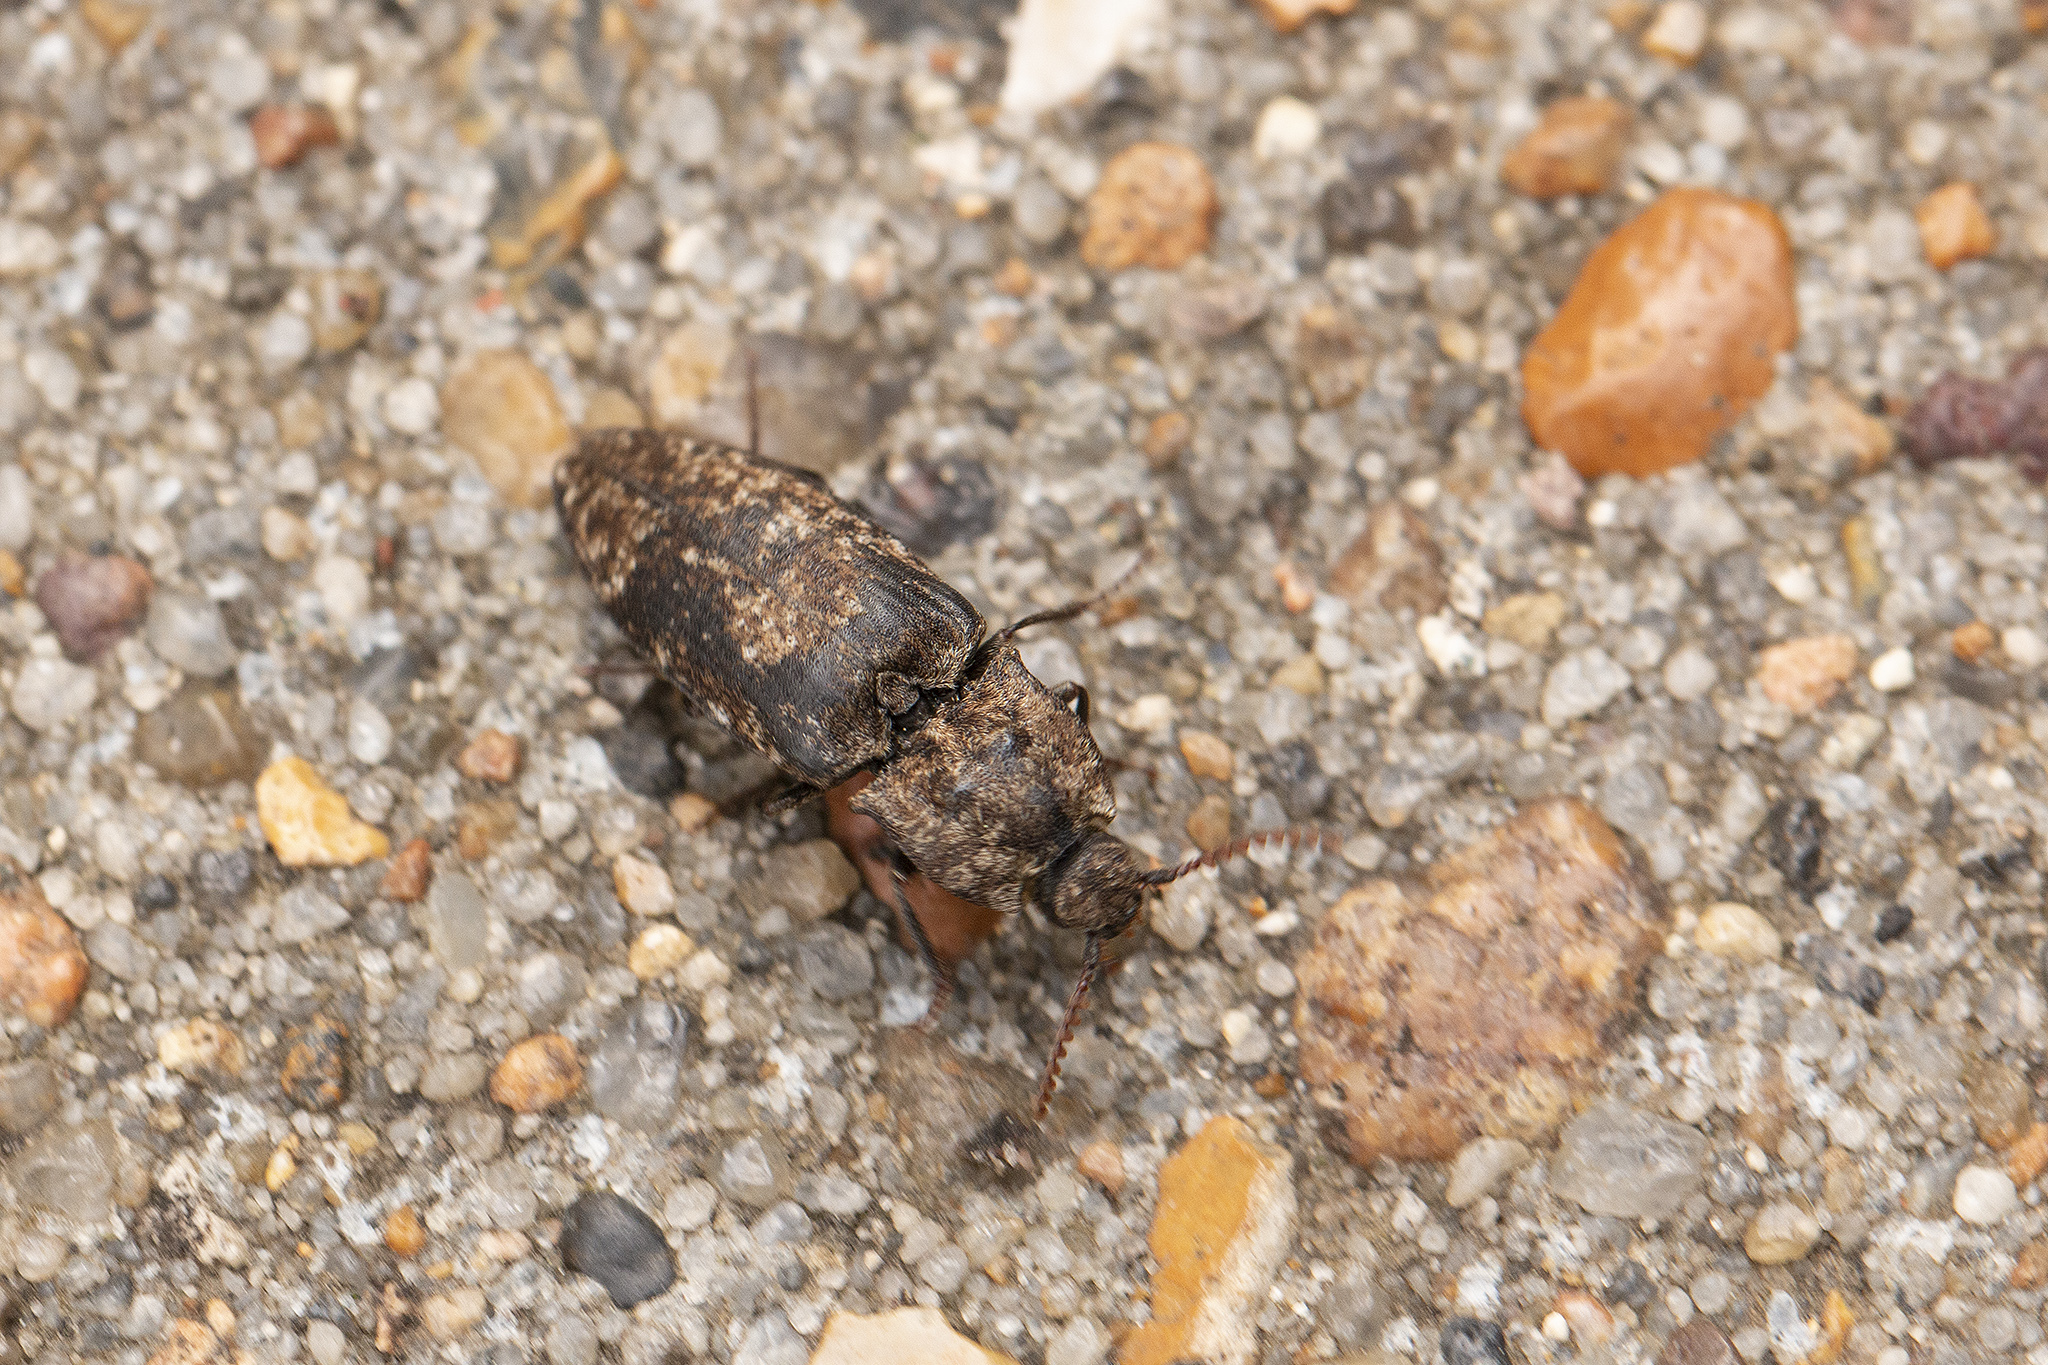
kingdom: Animalia
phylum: Arthropoda
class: Insecta
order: Coleoptera
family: Elateridae
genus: Agrypnus
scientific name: Agrypnus murinus
